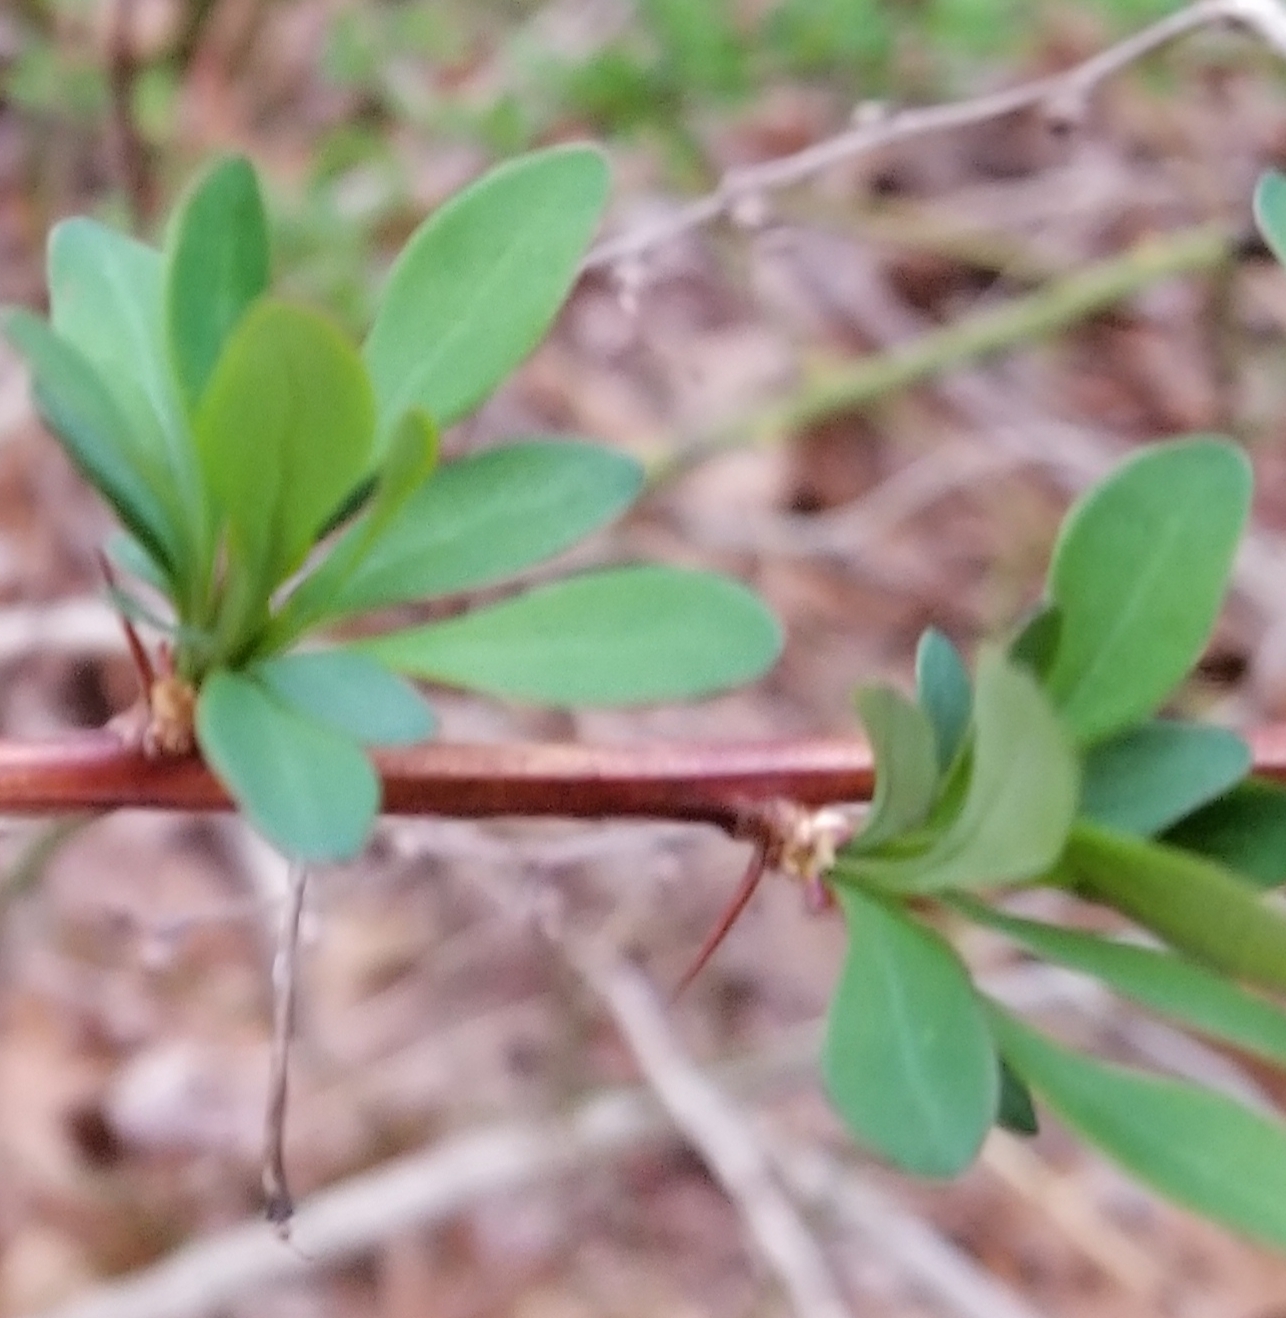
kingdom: Plantae
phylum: Tracheophyta
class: Magnoliopsida
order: Ranunculales
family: Berberidaceae
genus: Berberis
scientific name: Berberis thunbergii
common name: Japanese barberry
